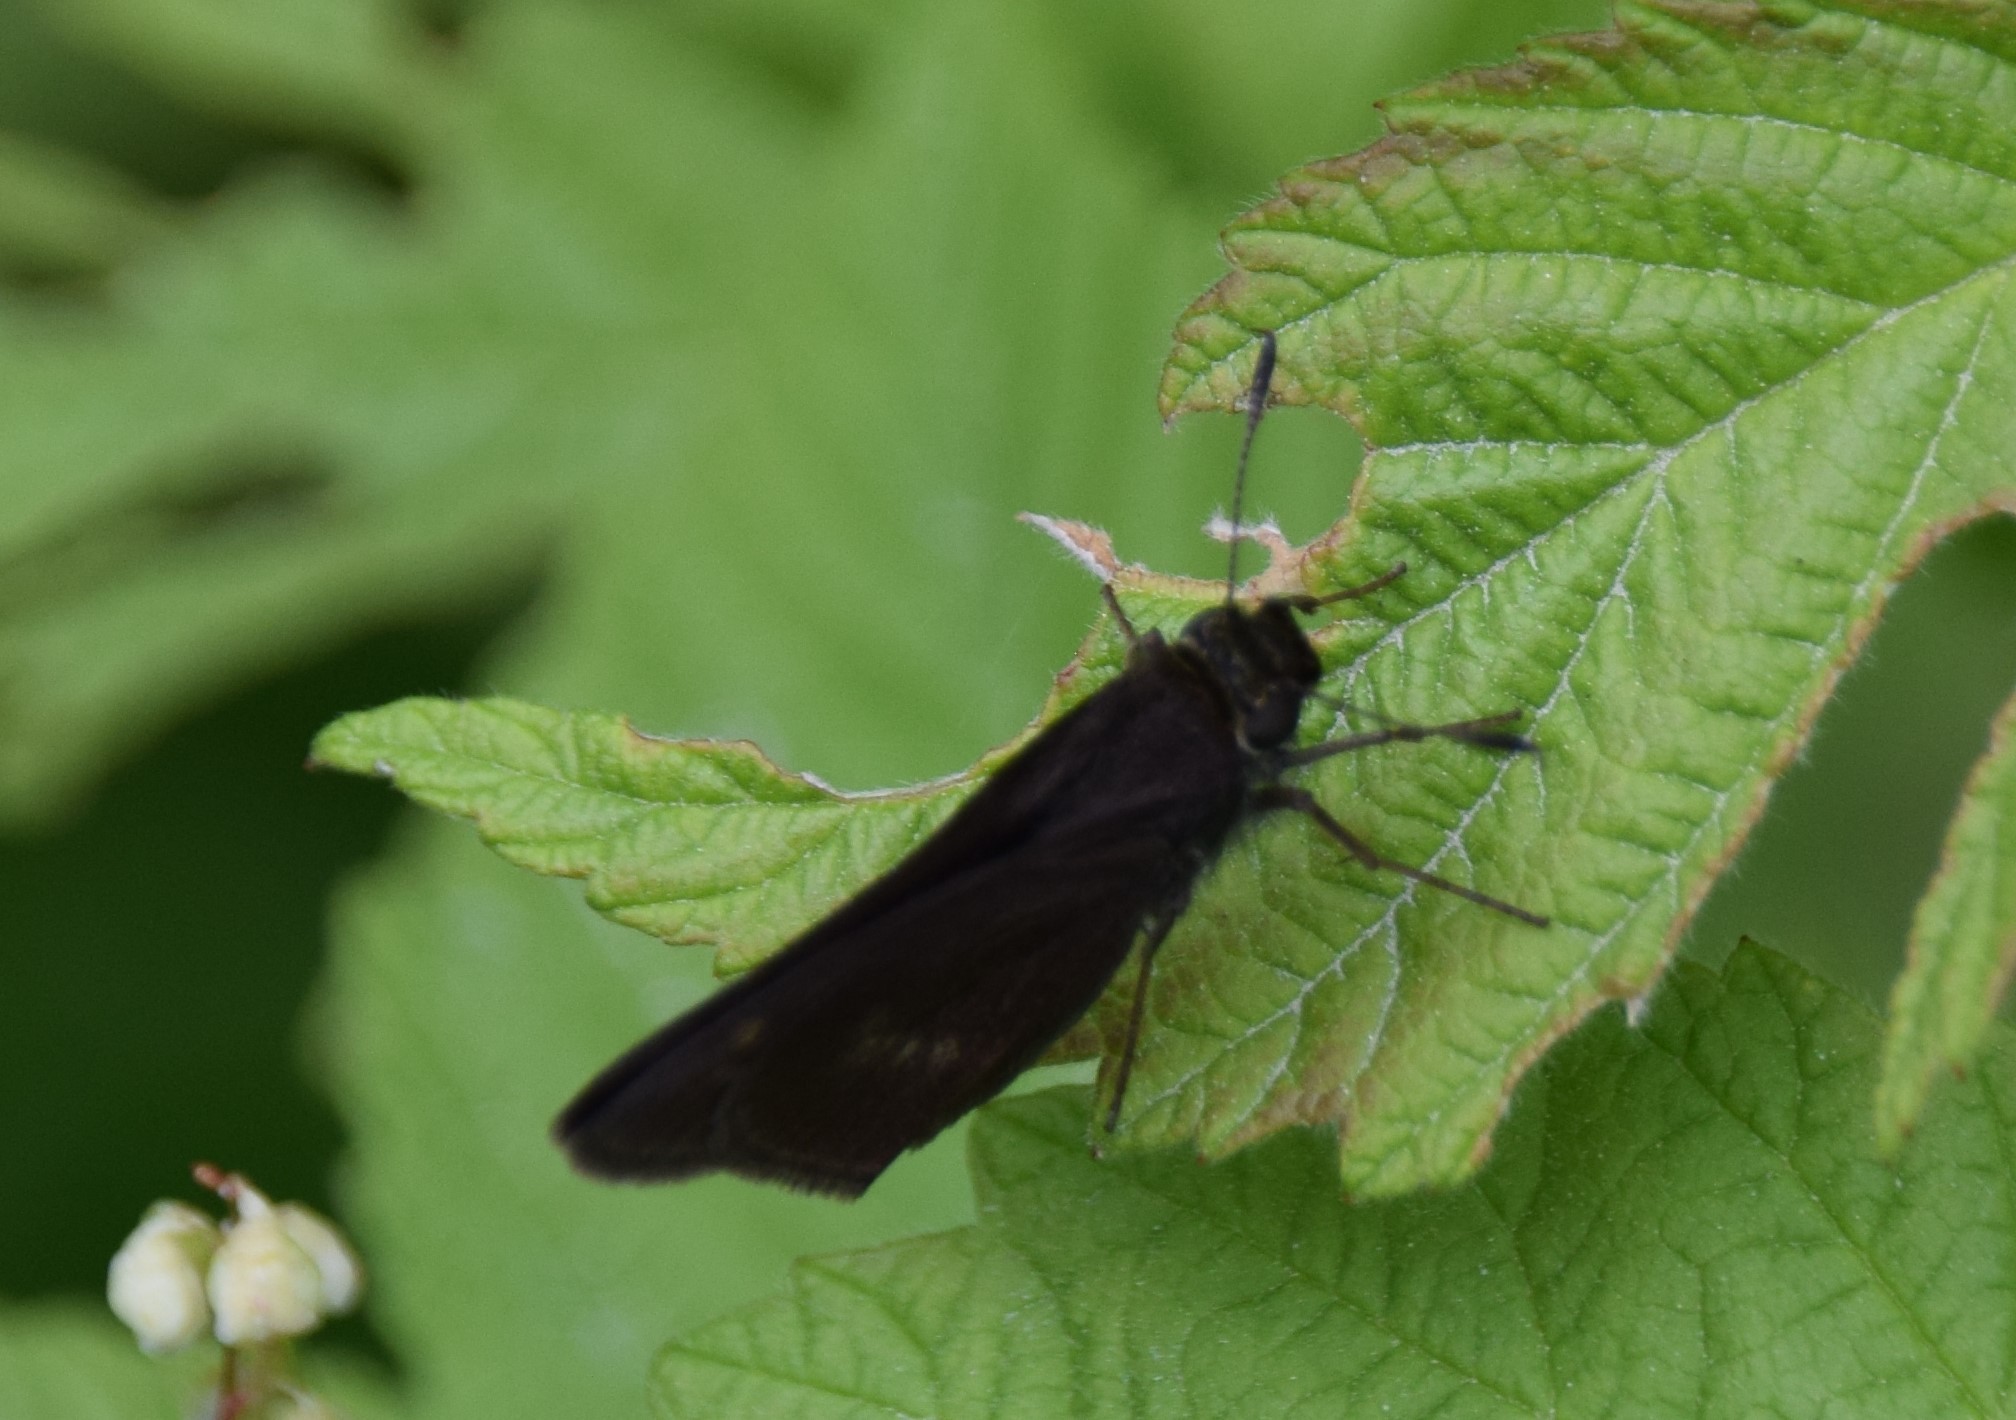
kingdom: Animalia
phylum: Arthropoda
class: Insecta
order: Lepidoptera
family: Hesperiidae
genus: Euphyes
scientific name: Euphyes vestris
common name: Dun skipper
